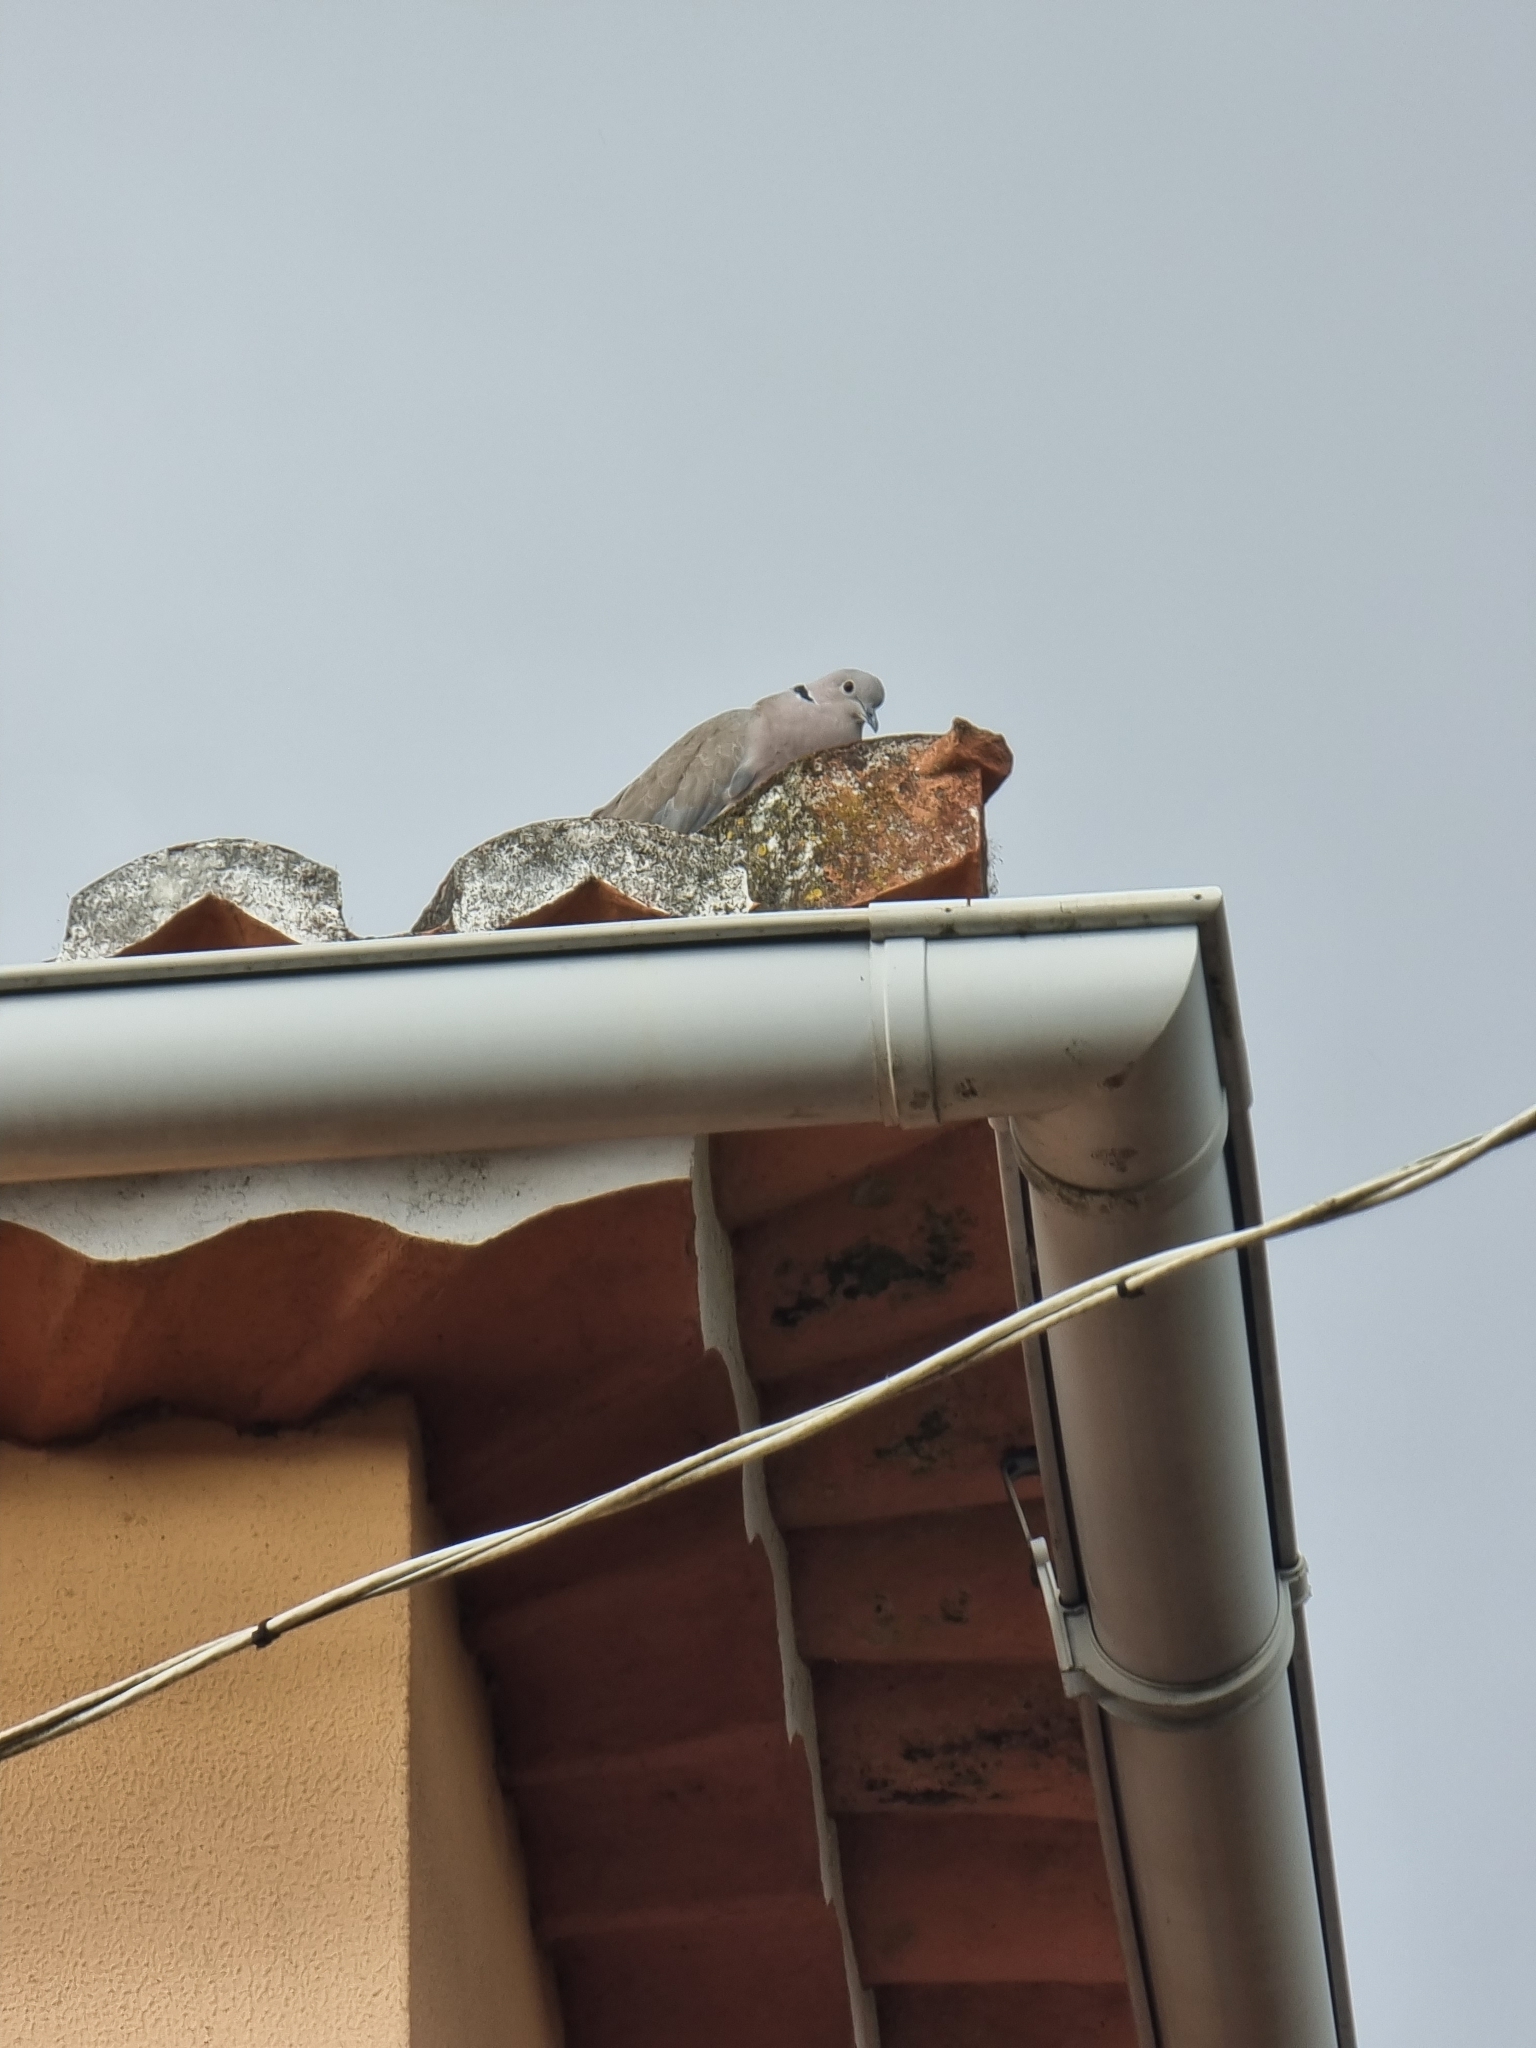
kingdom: Animalia
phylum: Chordata
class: Aves
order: Columbiformes
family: Columbidae
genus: Streptopelia
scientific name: Streptopelia decaocto
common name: Eurasian collared dove
